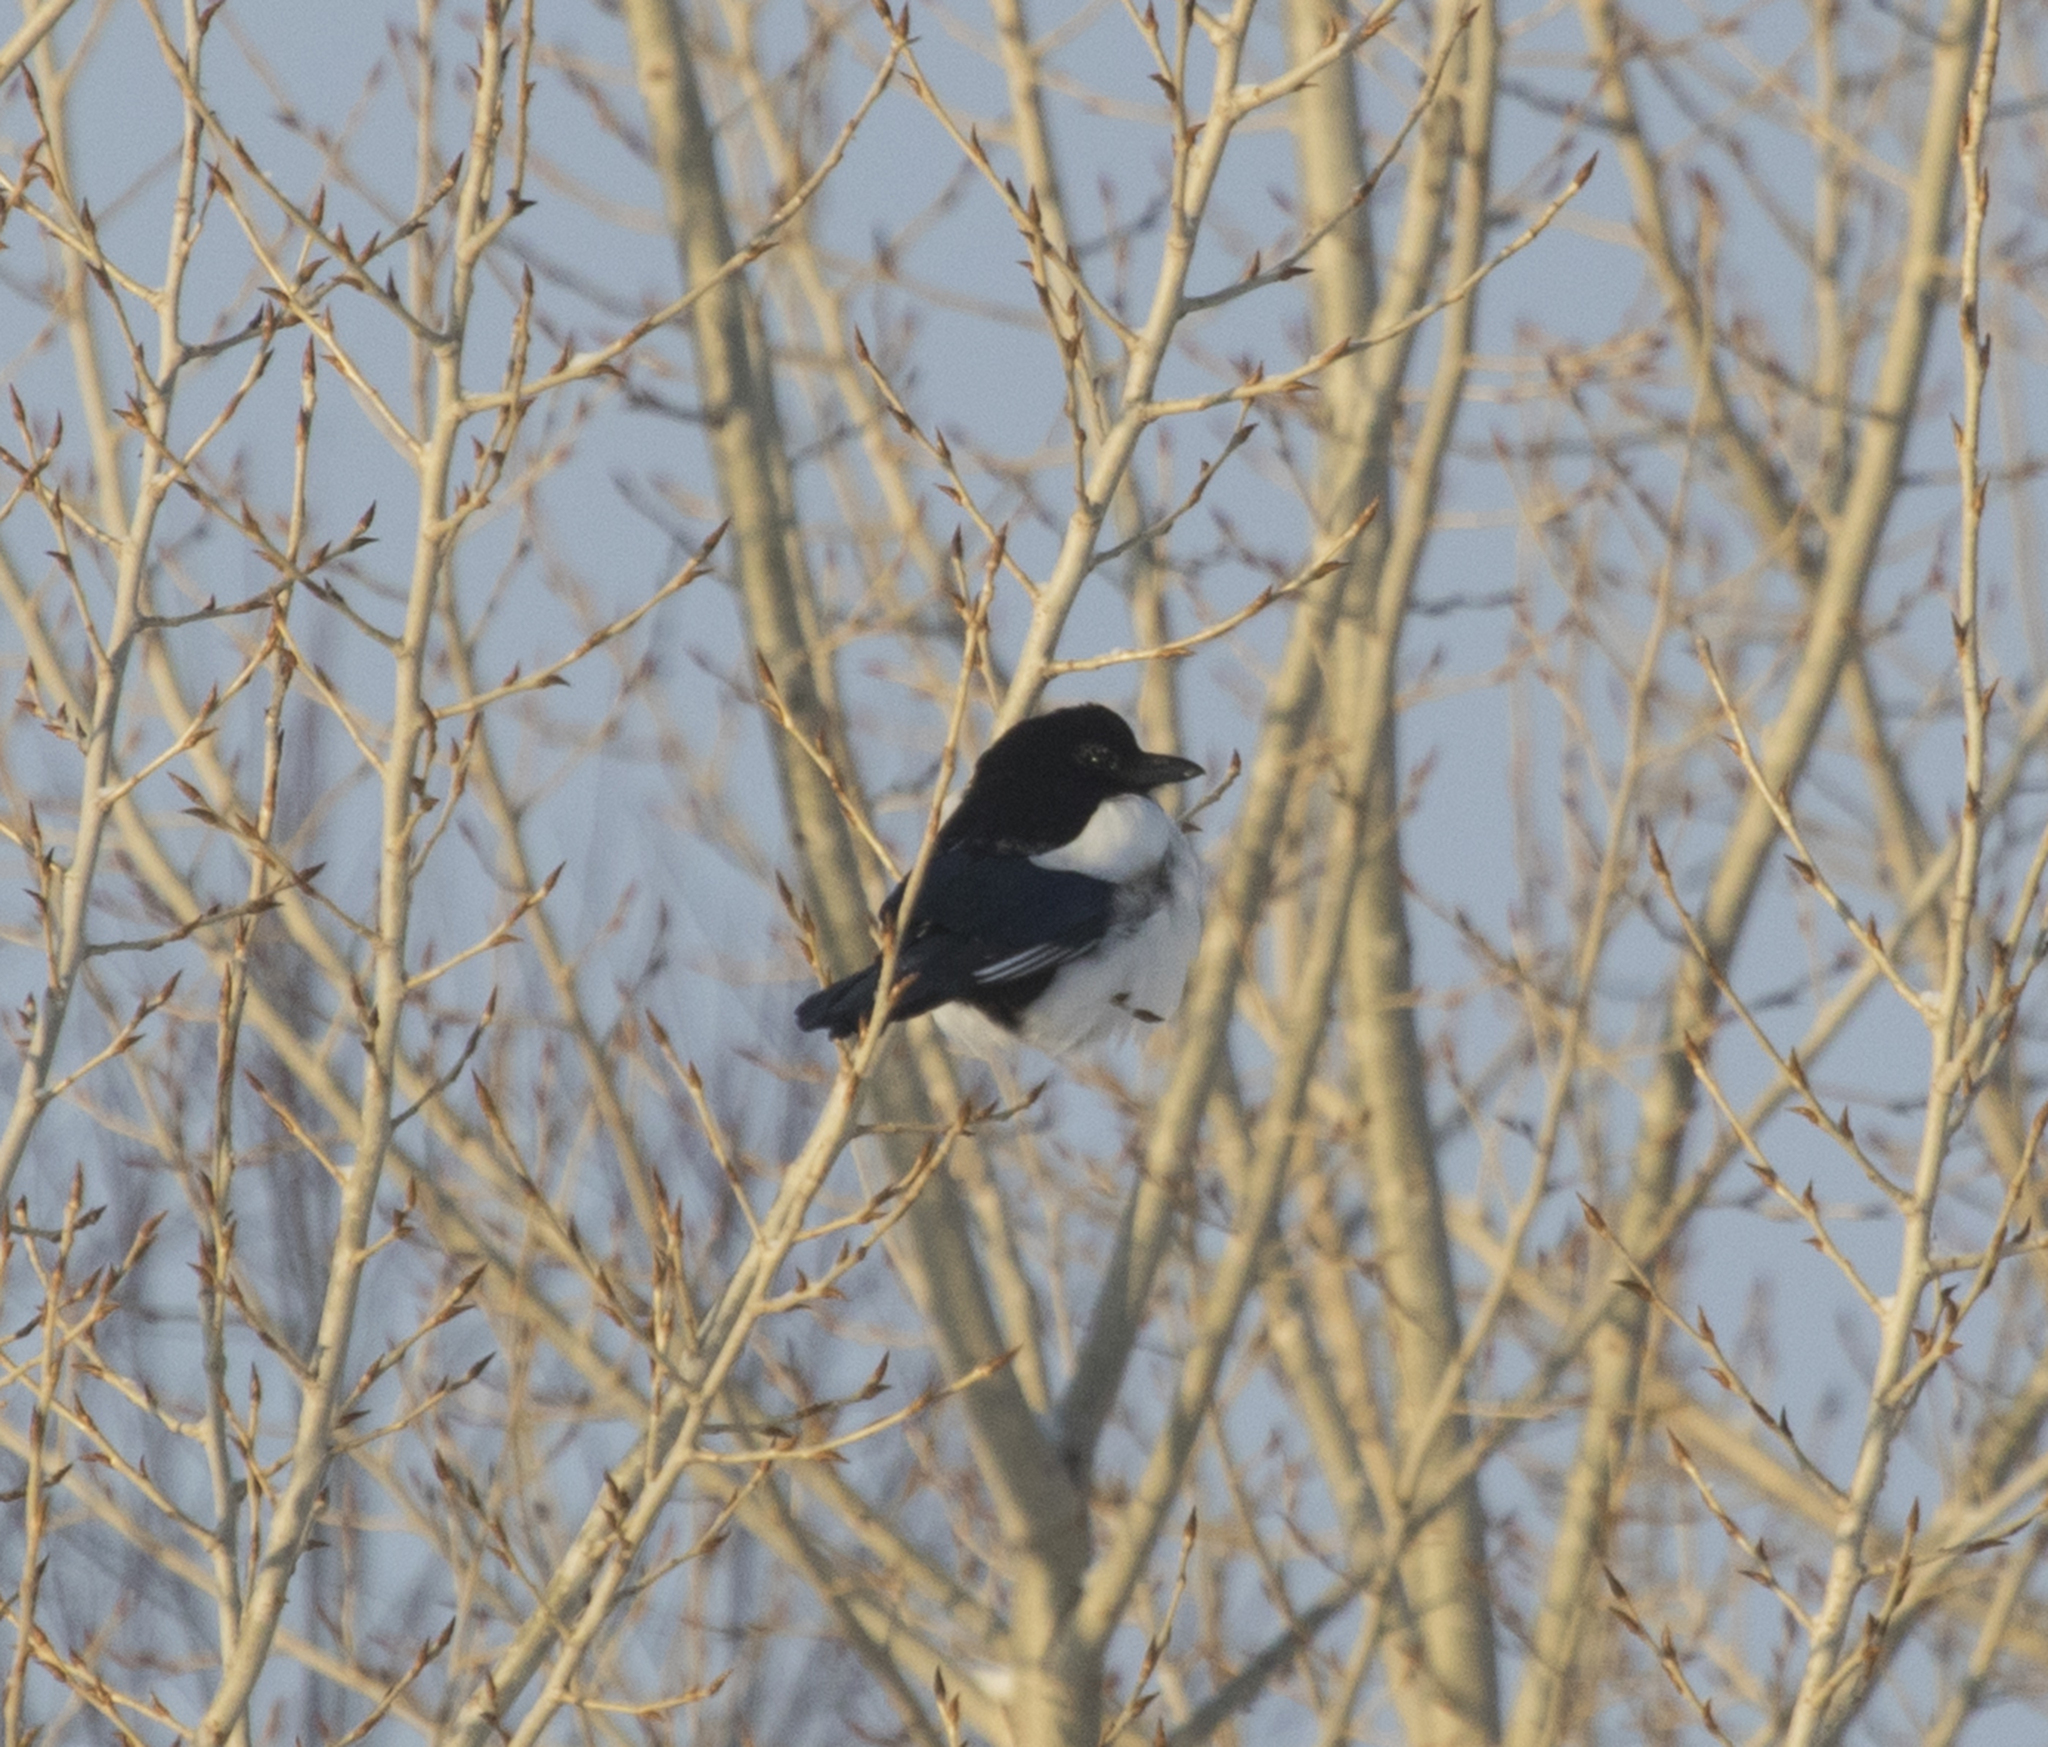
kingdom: Animalia
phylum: Chordata
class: Aves
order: Passeriformes
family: Corvidae
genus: Pica
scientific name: Pica pica
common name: Eurasian magpie
